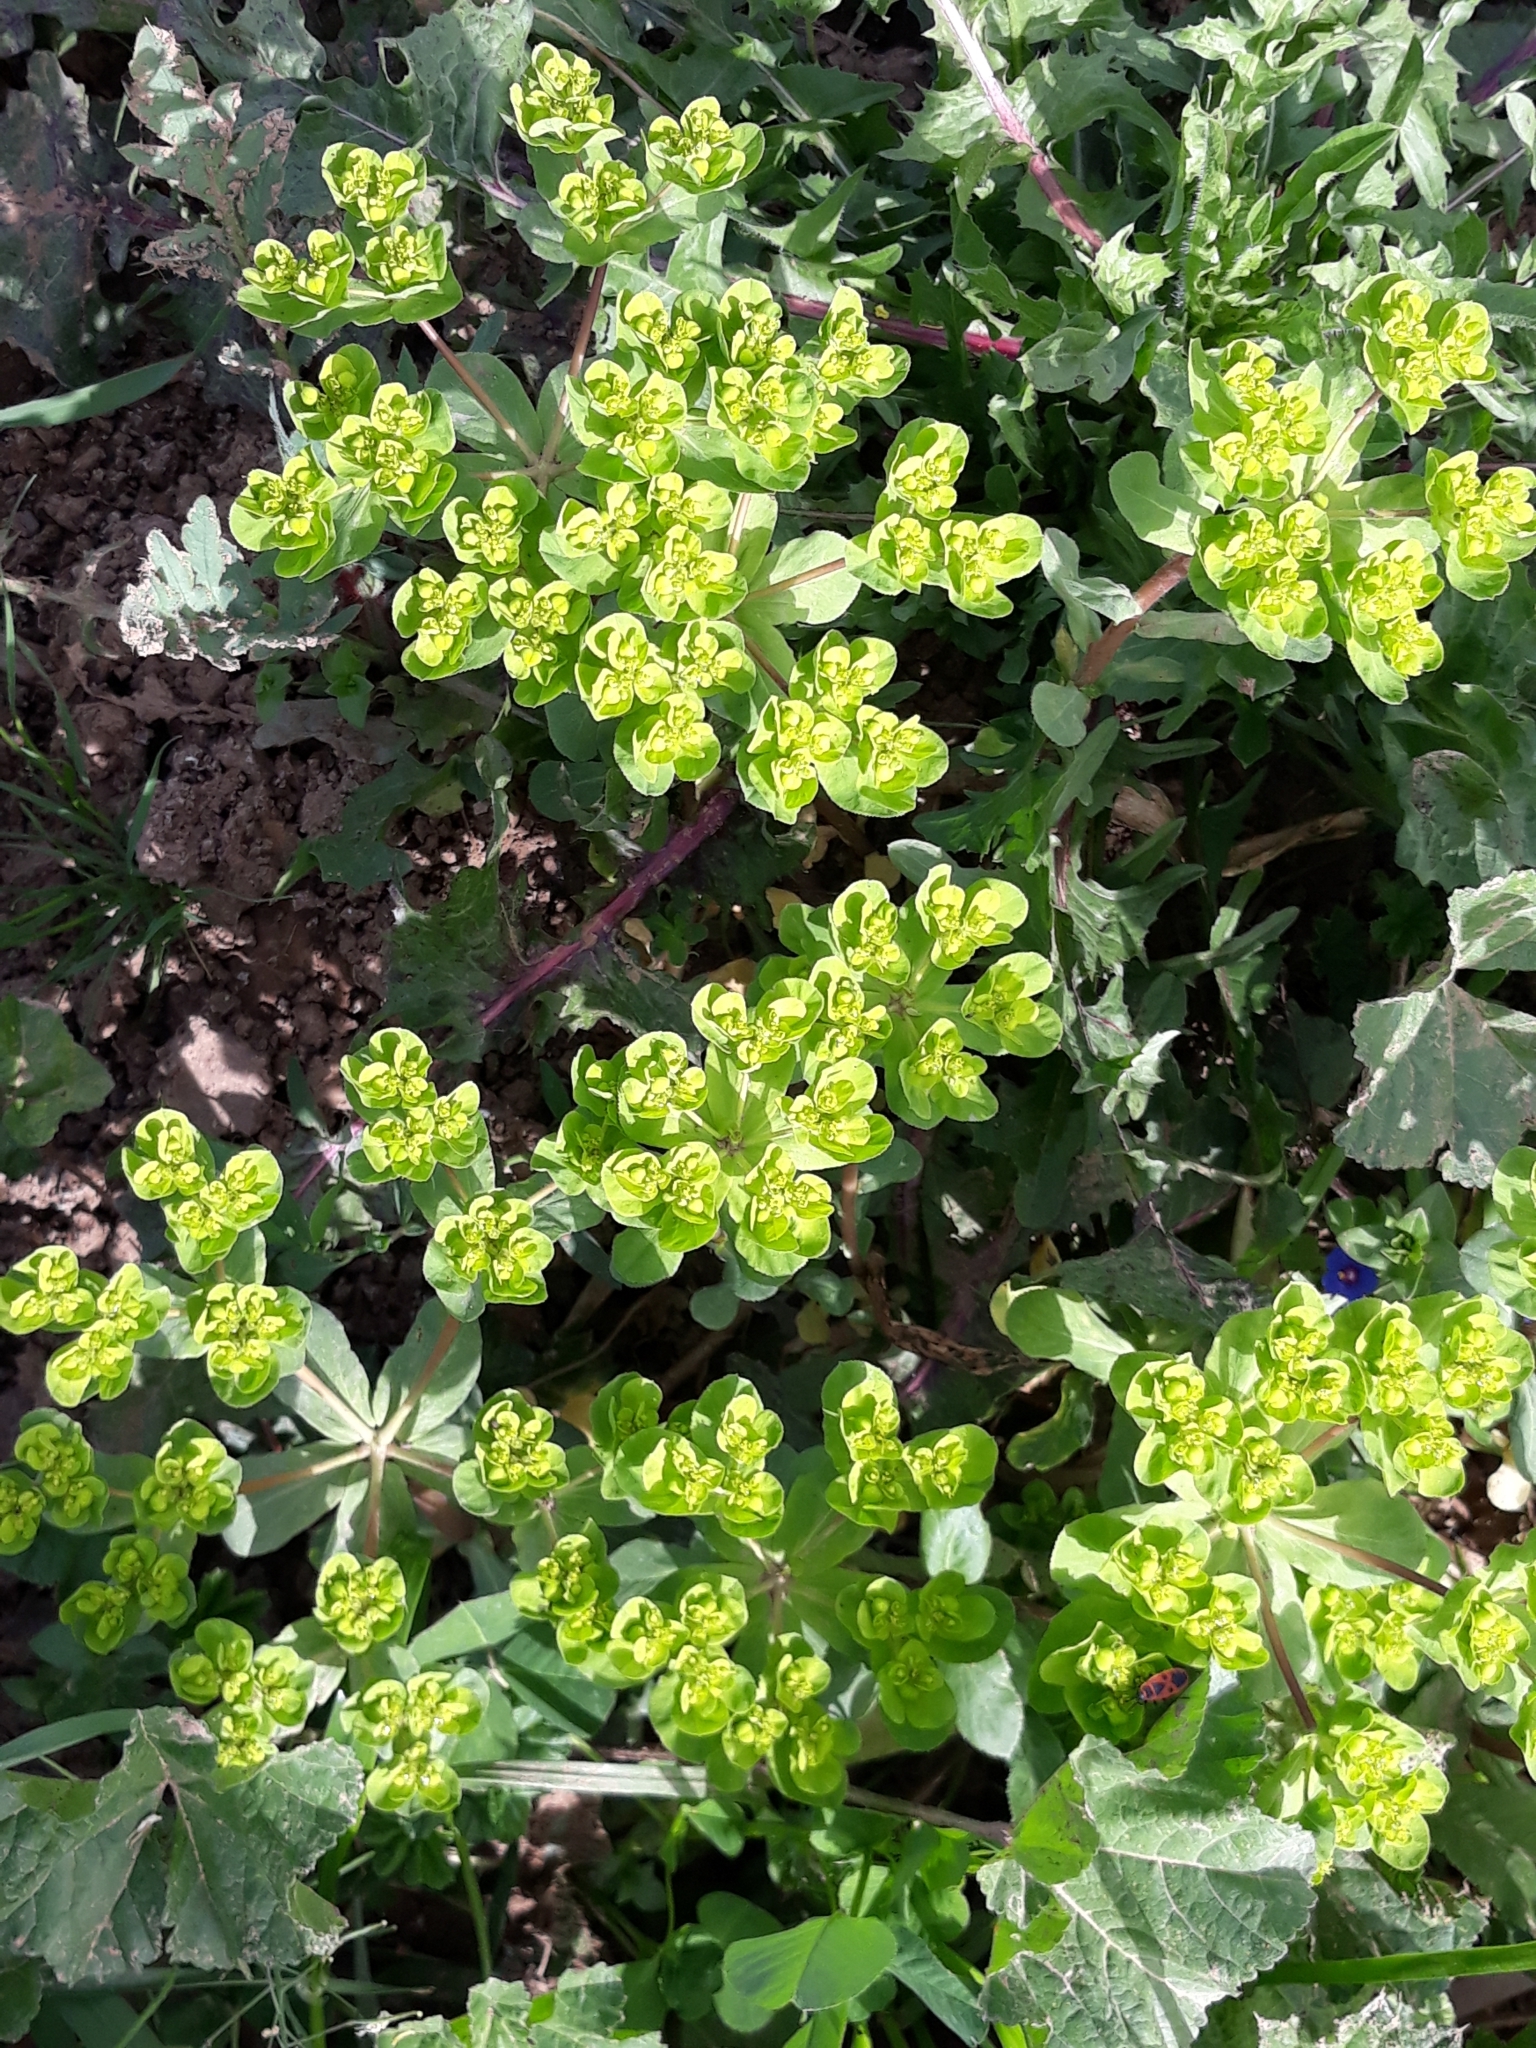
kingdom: Plantae
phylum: Tracheophyta
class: Magnoliopsida
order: Malpighiales
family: Euphorbiaceae
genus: Euphorbia
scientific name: Euphorbia helioscopia
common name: Sun spurge
